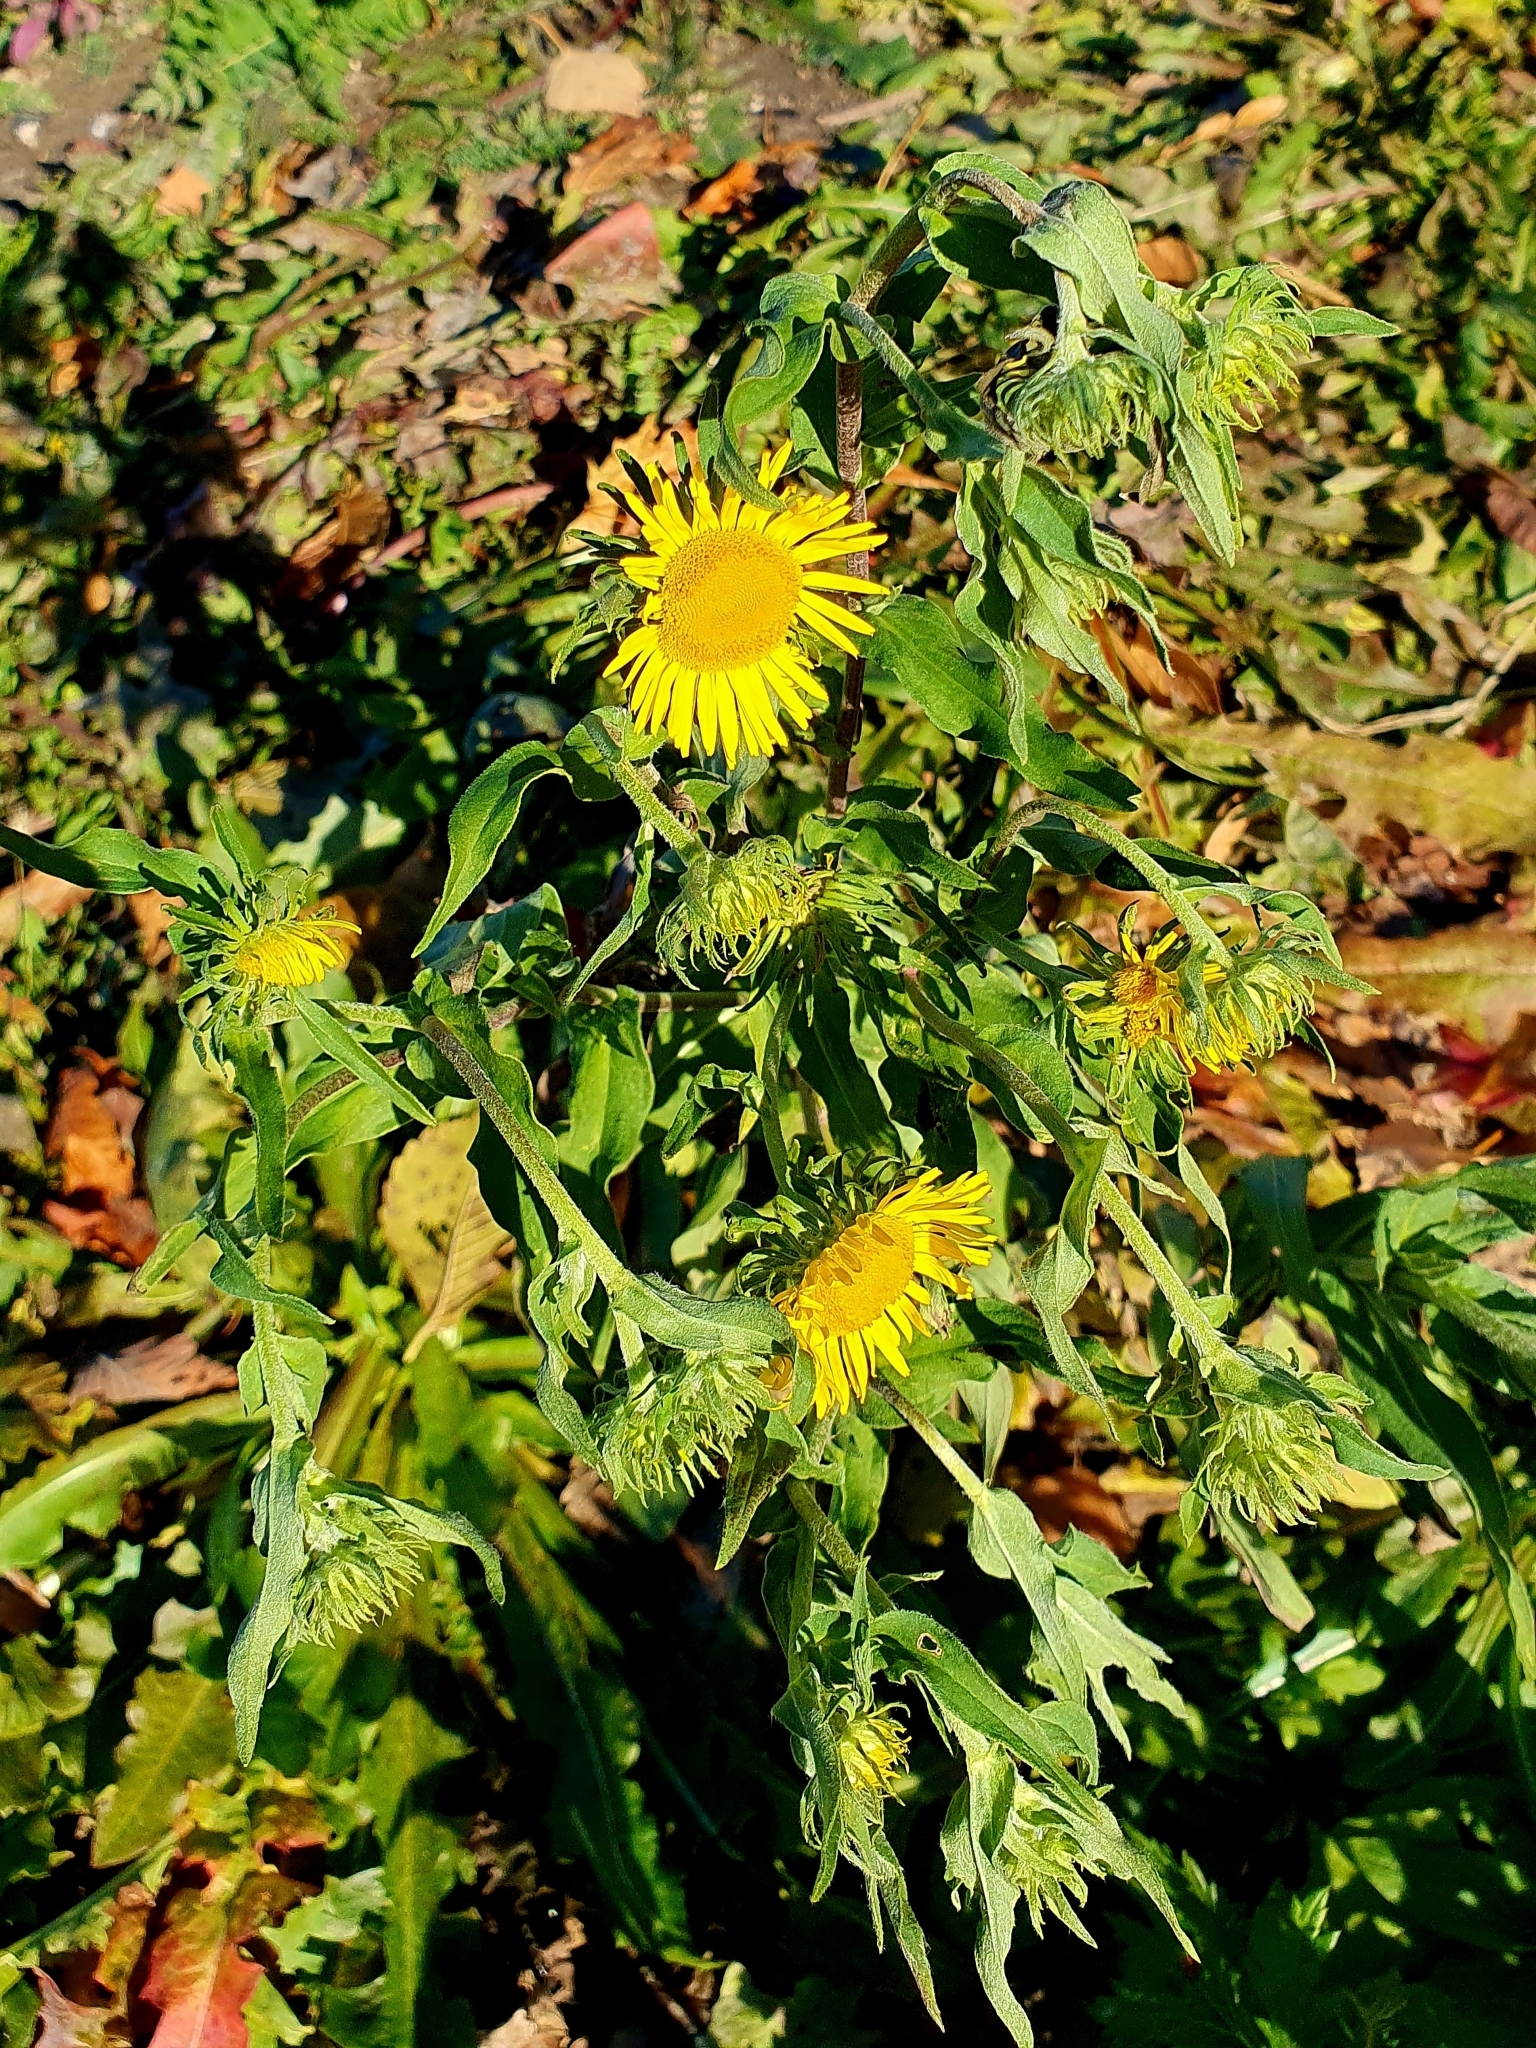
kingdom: Plantae
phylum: Tracheophyta
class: Magnoliopsida
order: Asterales
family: Asteraceae
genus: Pentanema
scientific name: Pentanema britannicum
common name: British elecampane
